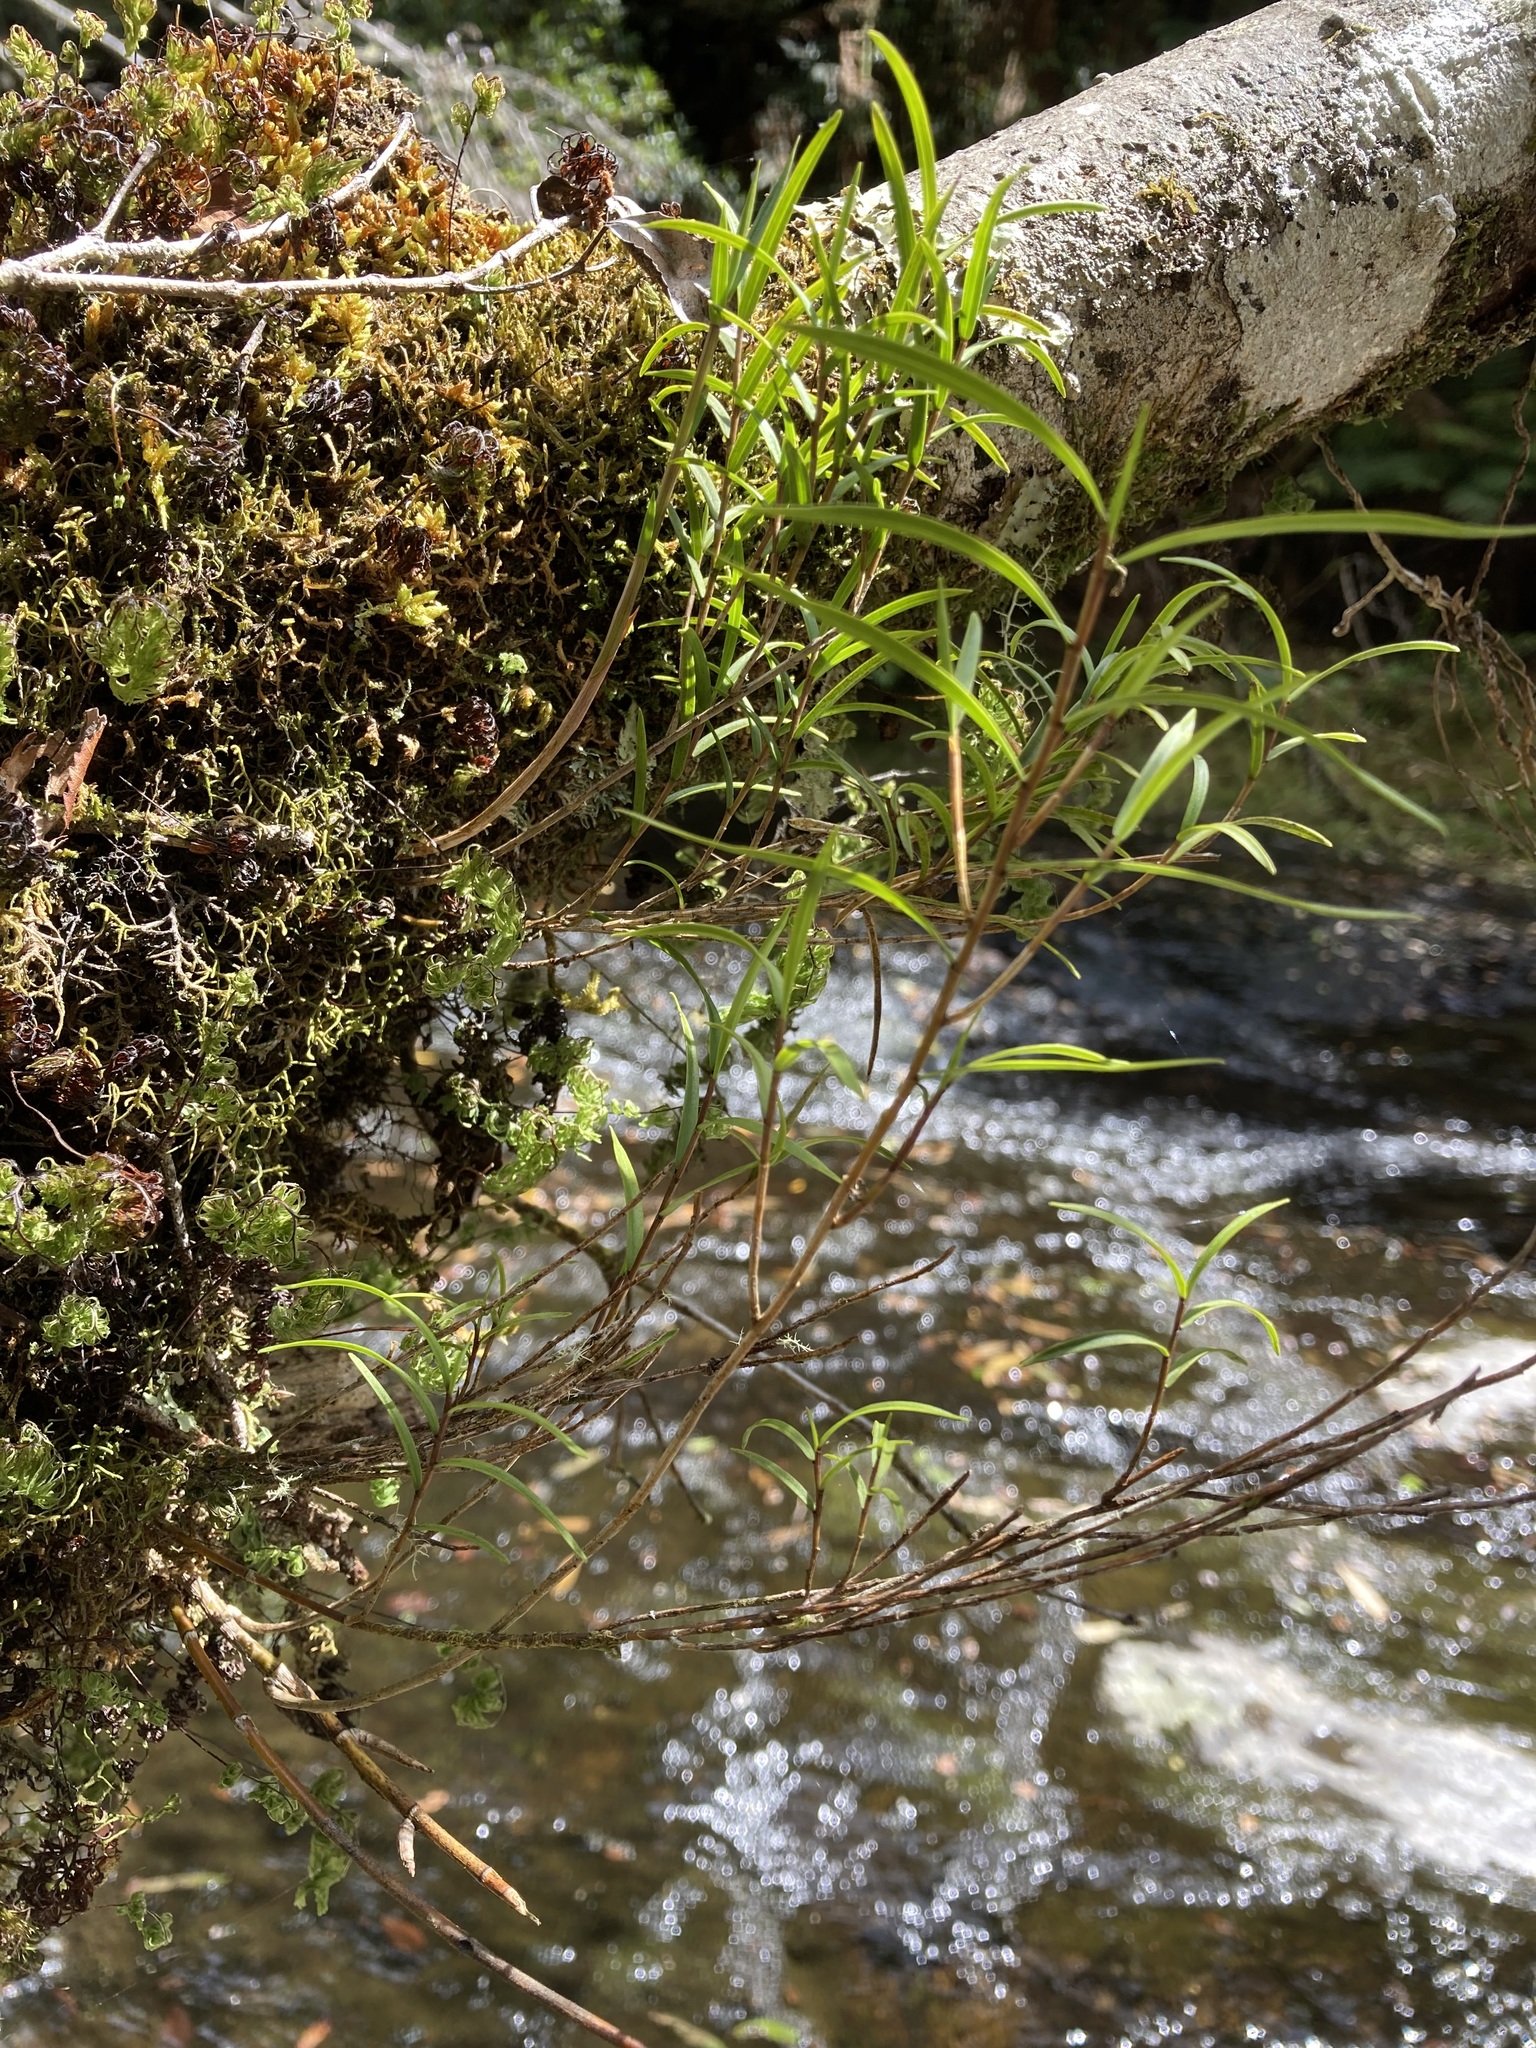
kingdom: Plantae
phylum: Tracheophyta
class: Liliopsida
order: Asparagales
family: Orchidaceae
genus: Dendrobium
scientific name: Dendrobium cunninghamii
